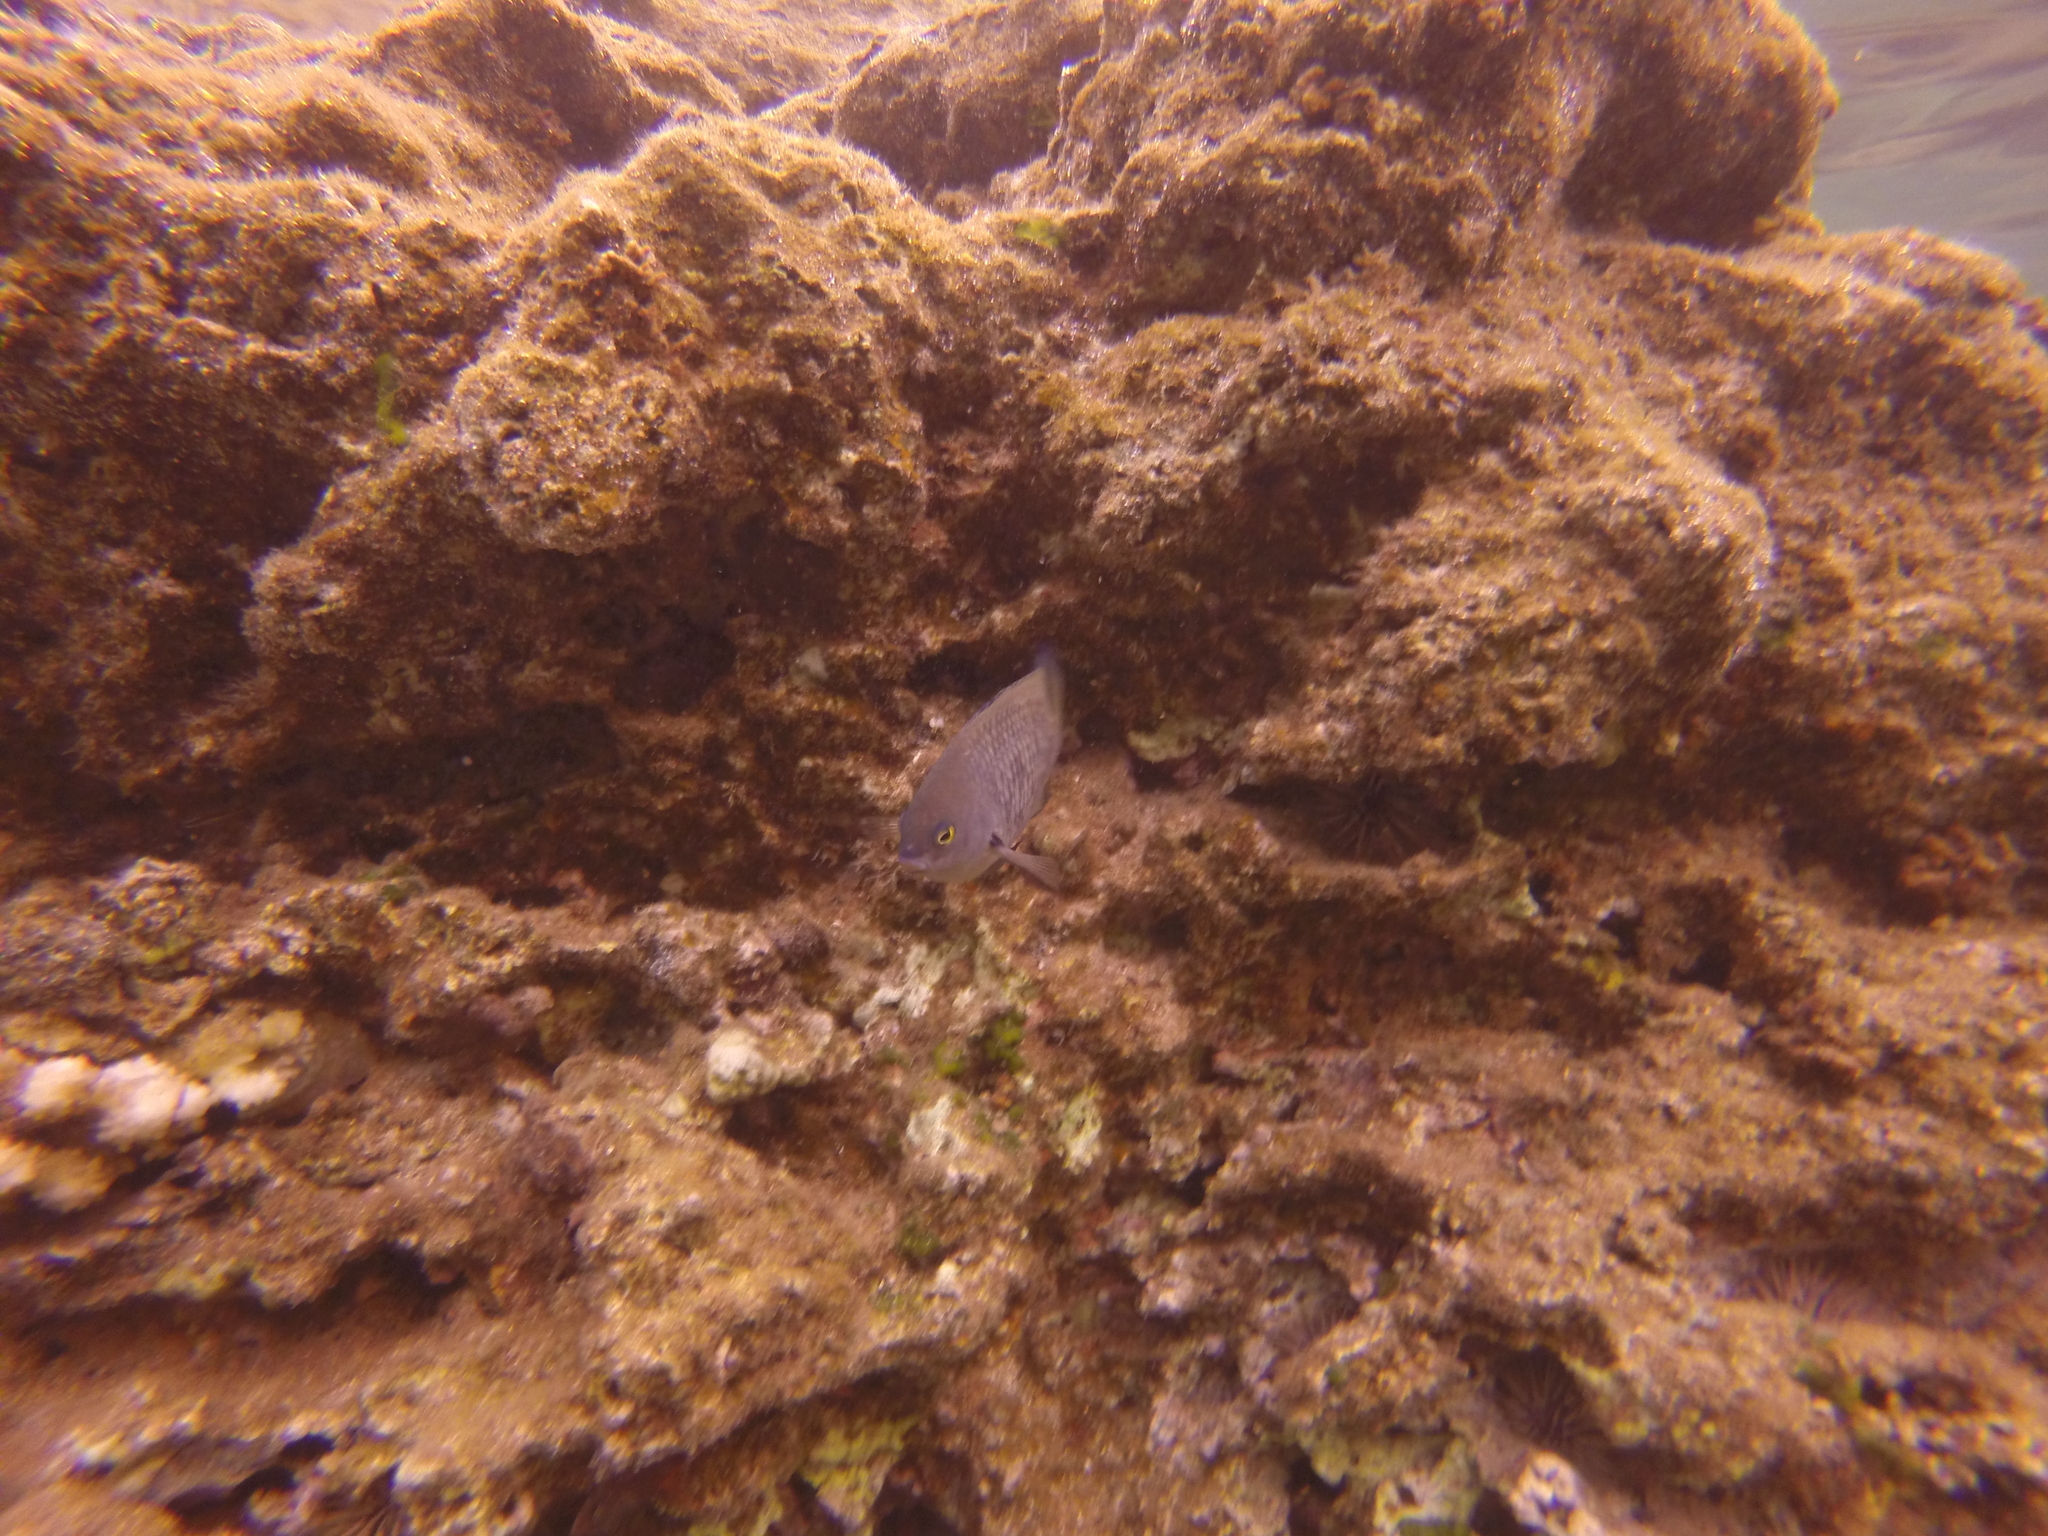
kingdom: Animalia
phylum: Chordata
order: Perciformes
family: Pomacentridae
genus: Stegastes
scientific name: Stegastes fasciolatus
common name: Pacific gregory
